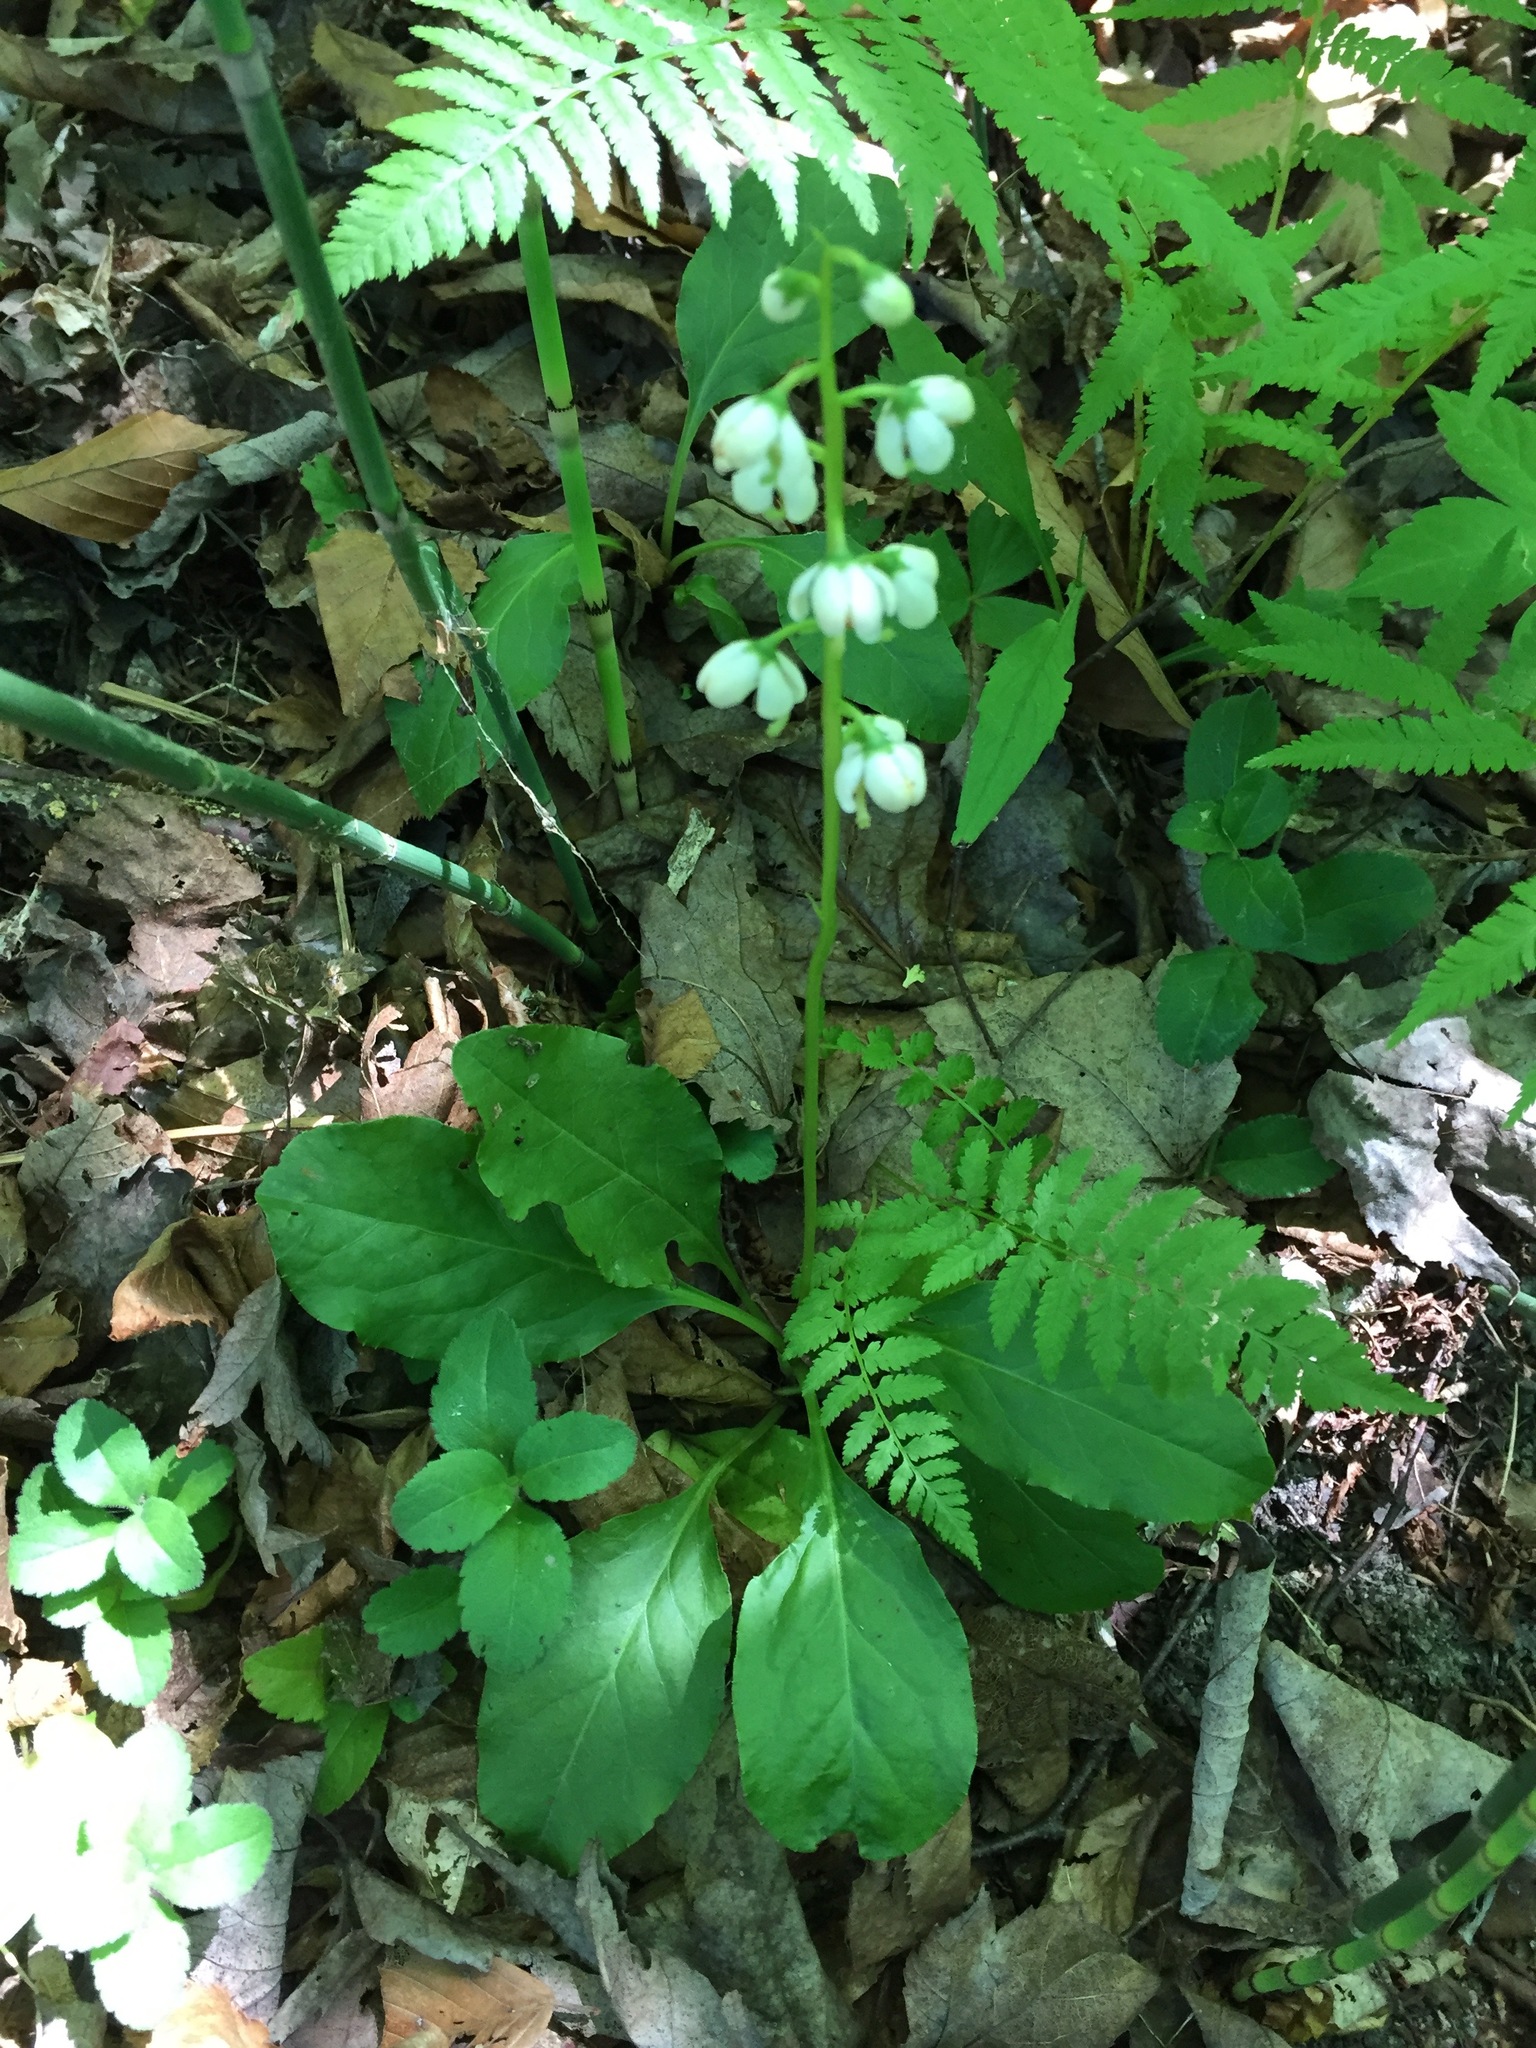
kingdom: Plantae
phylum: Tracheophyta
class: Magnoliopsida
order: Ericales
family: Ericaceae
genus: Pyrola
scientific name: Pyrola elliptica
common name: Shinleaf
